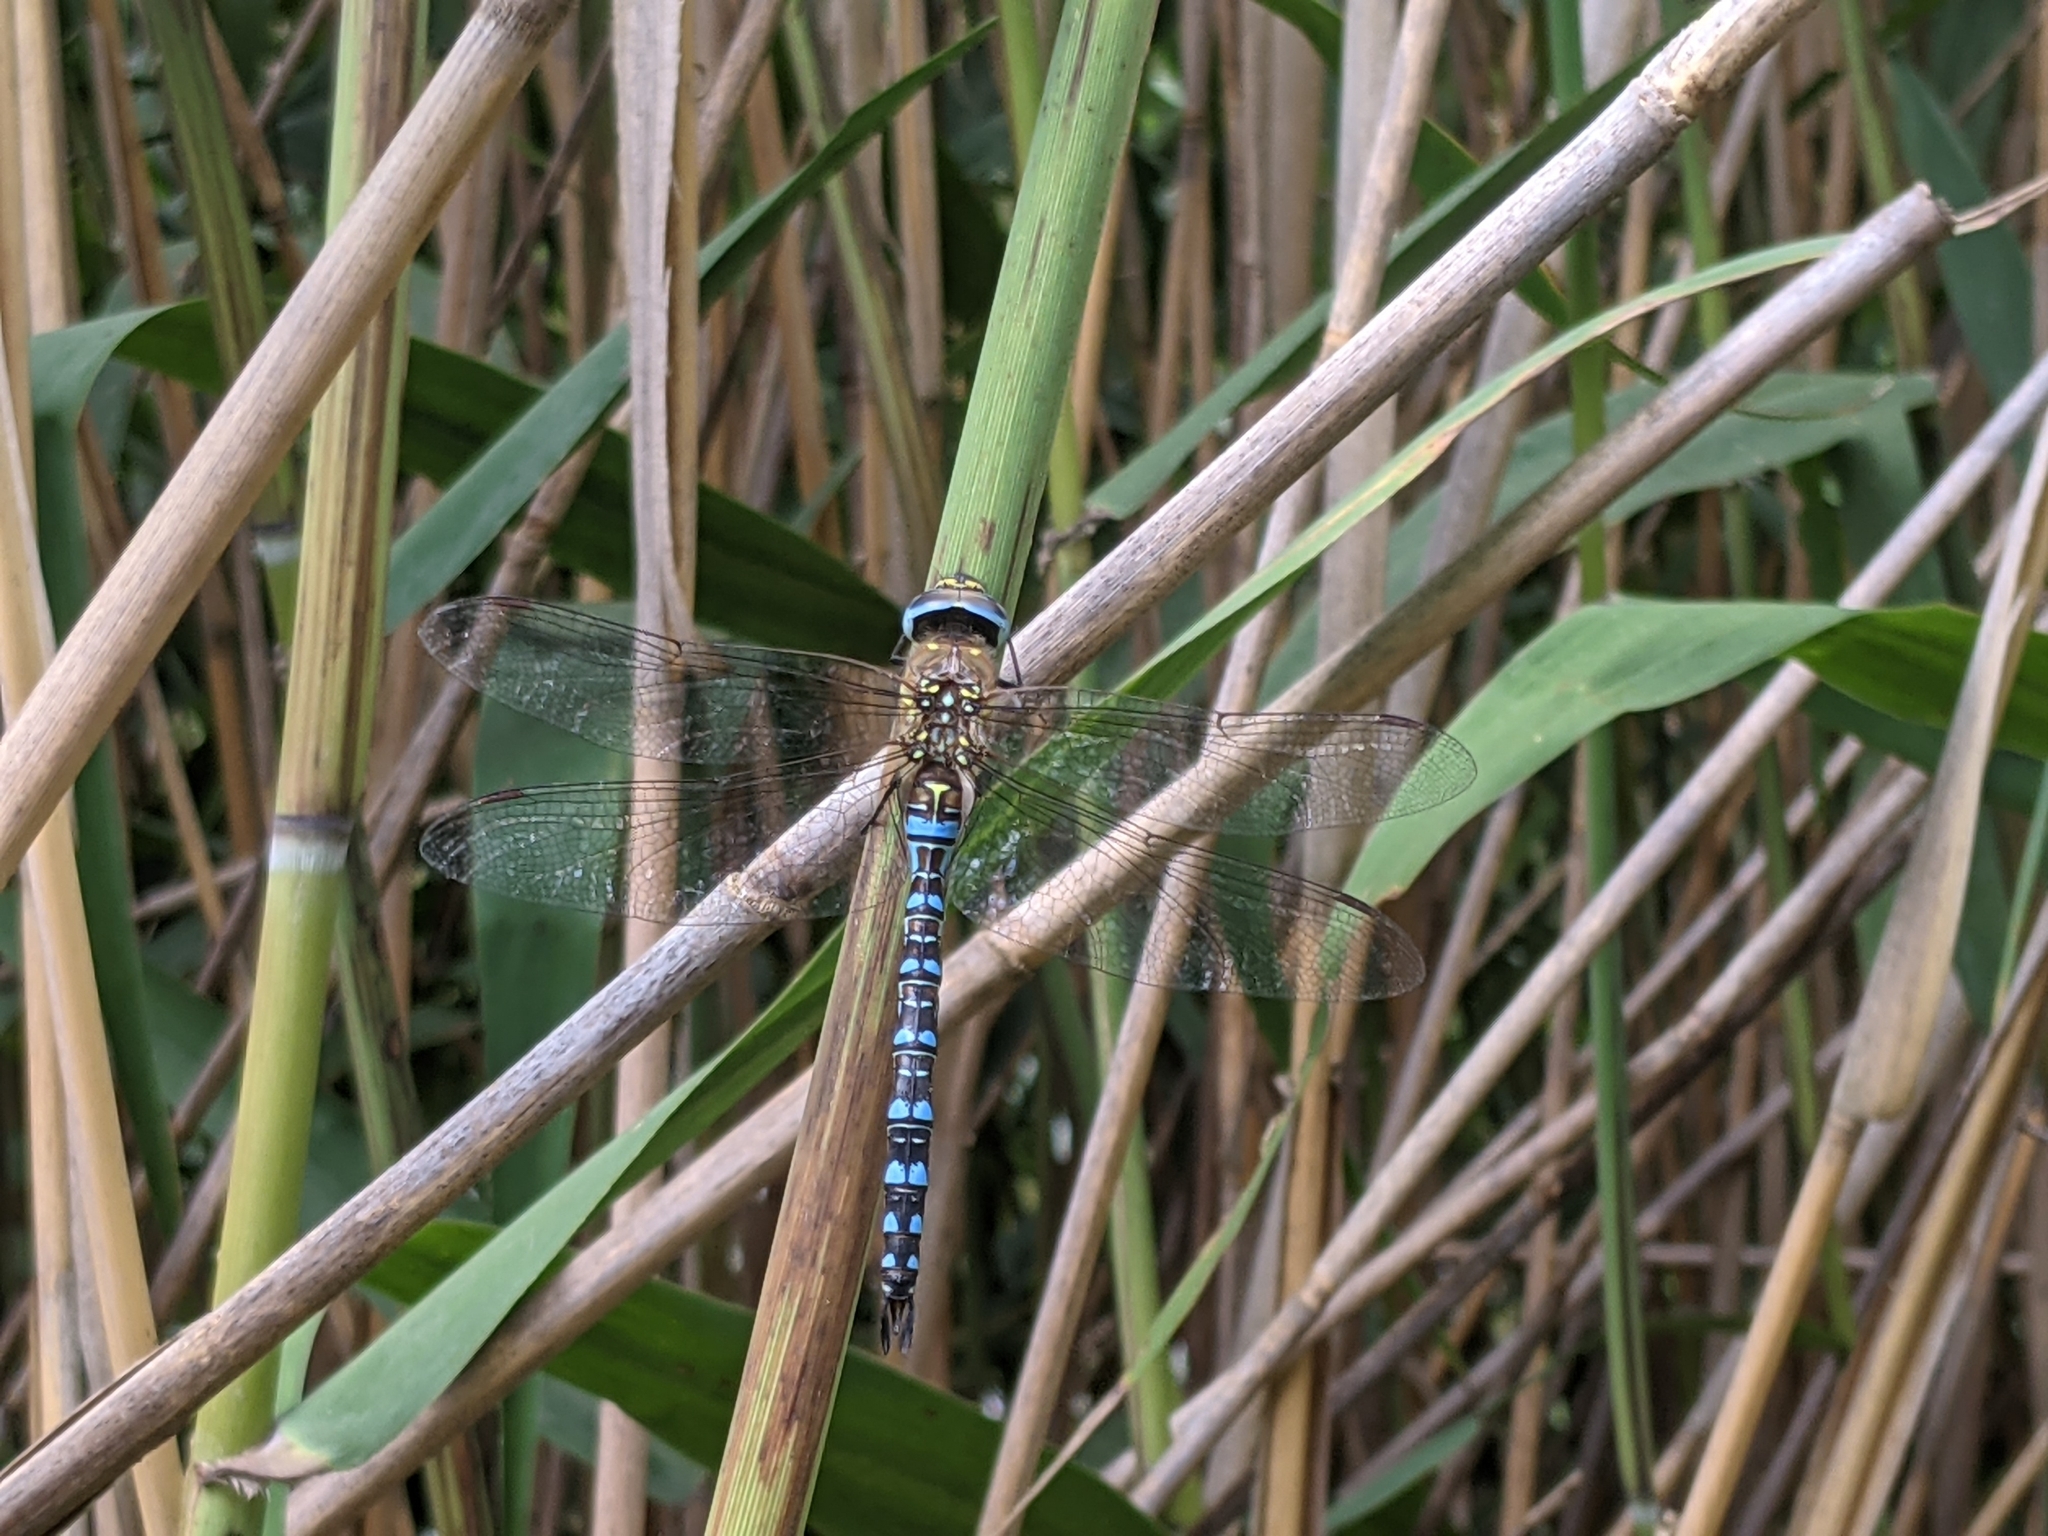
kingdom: Animalia
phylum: Arthropoda
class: Insecta
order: Odonata
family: Aeshnidae
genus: Aeshna
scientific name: Aeshna mixta
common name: Migrant hawker
